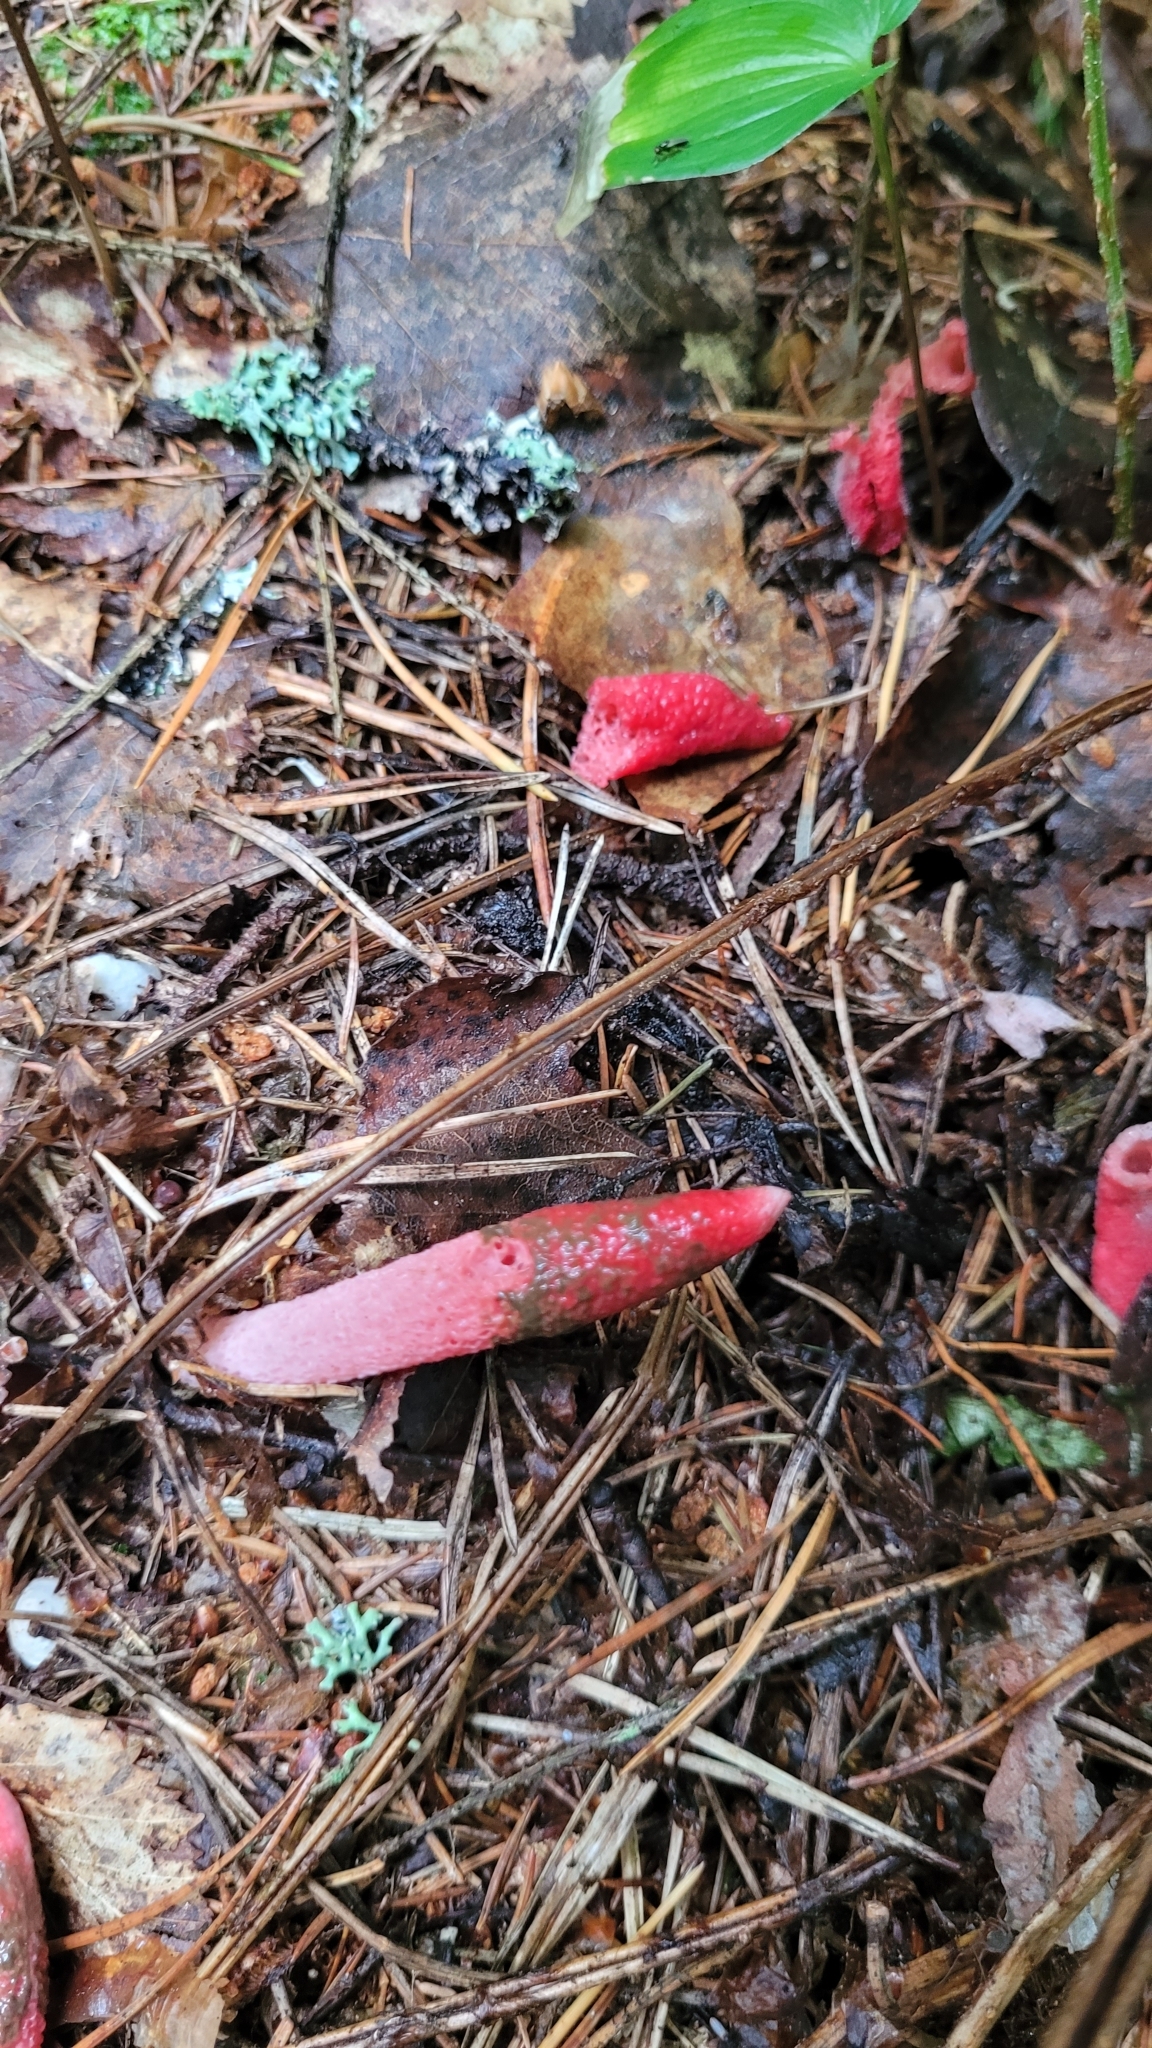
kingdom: Fungi
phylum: Basidiomycota
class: Agaricomycetes
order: Phallales
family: Phallaceae
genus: Mutinus
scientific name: Mutinus ravenelii
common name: Red stinkhorn
